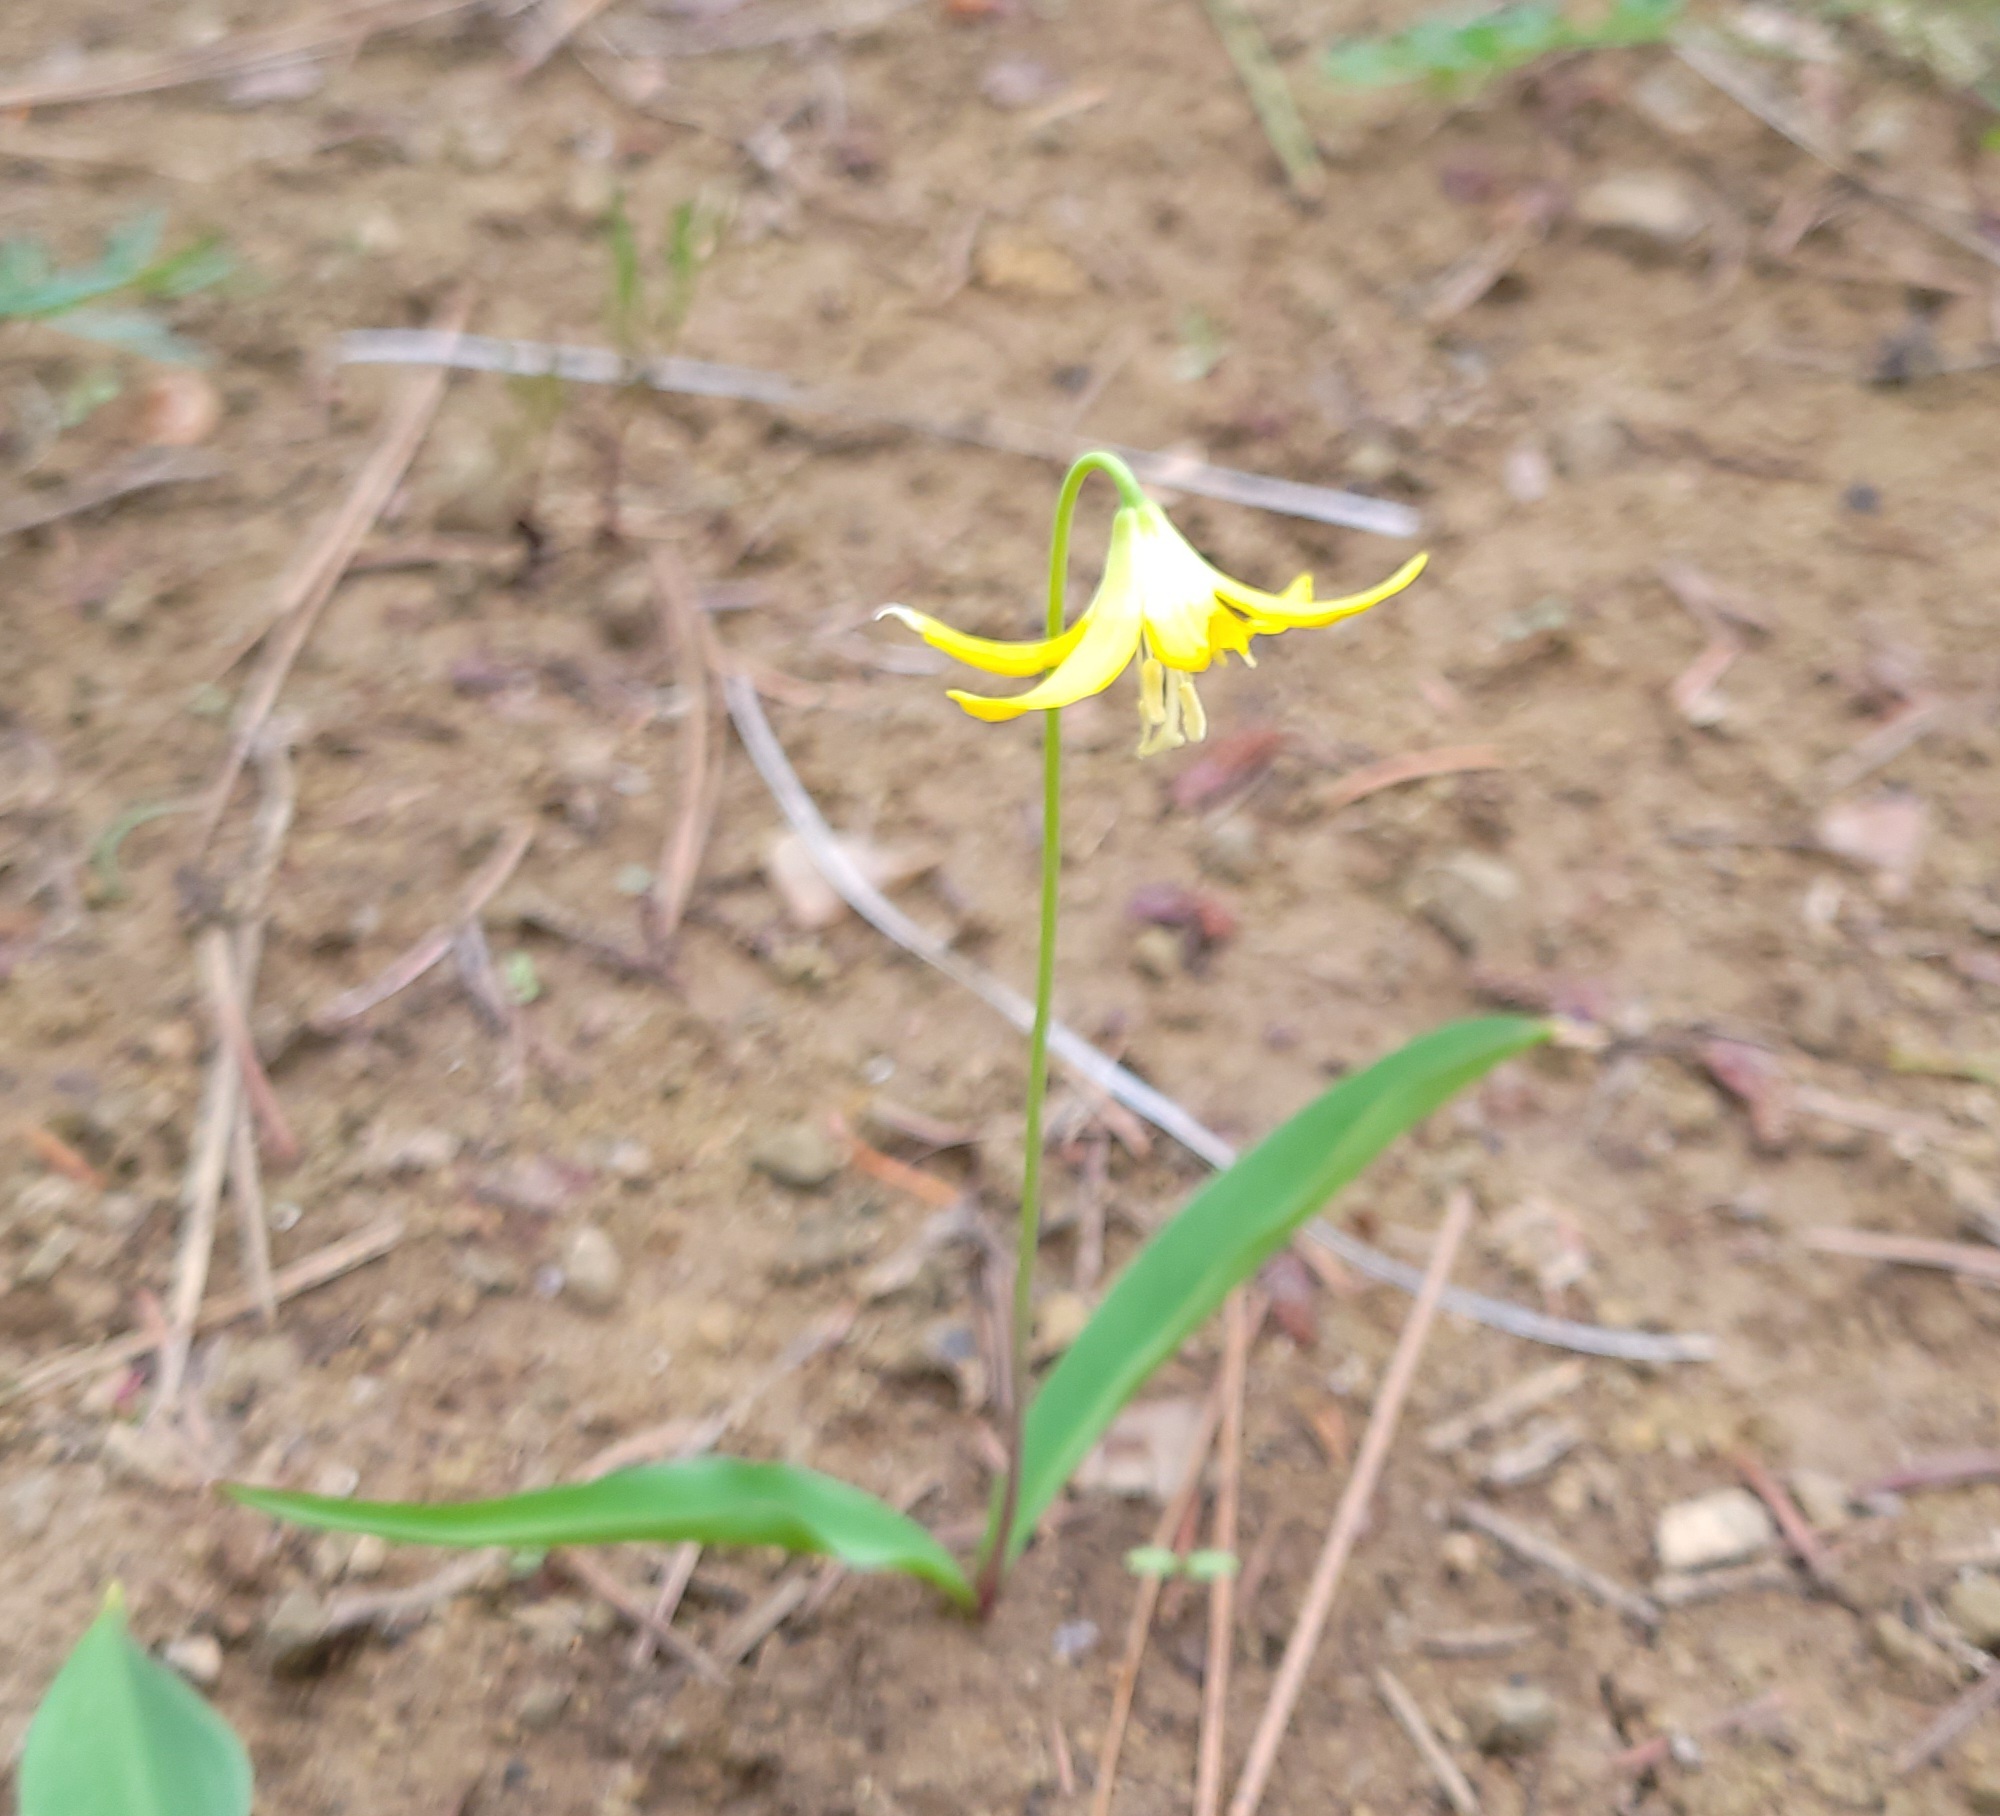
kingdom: Plantae
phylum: Tracheophyta
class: Liliopsida
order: Liliales
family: Liliaceae
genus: Erythronium
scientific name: Erythronium grandiflorum
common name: Avalanche-lily
